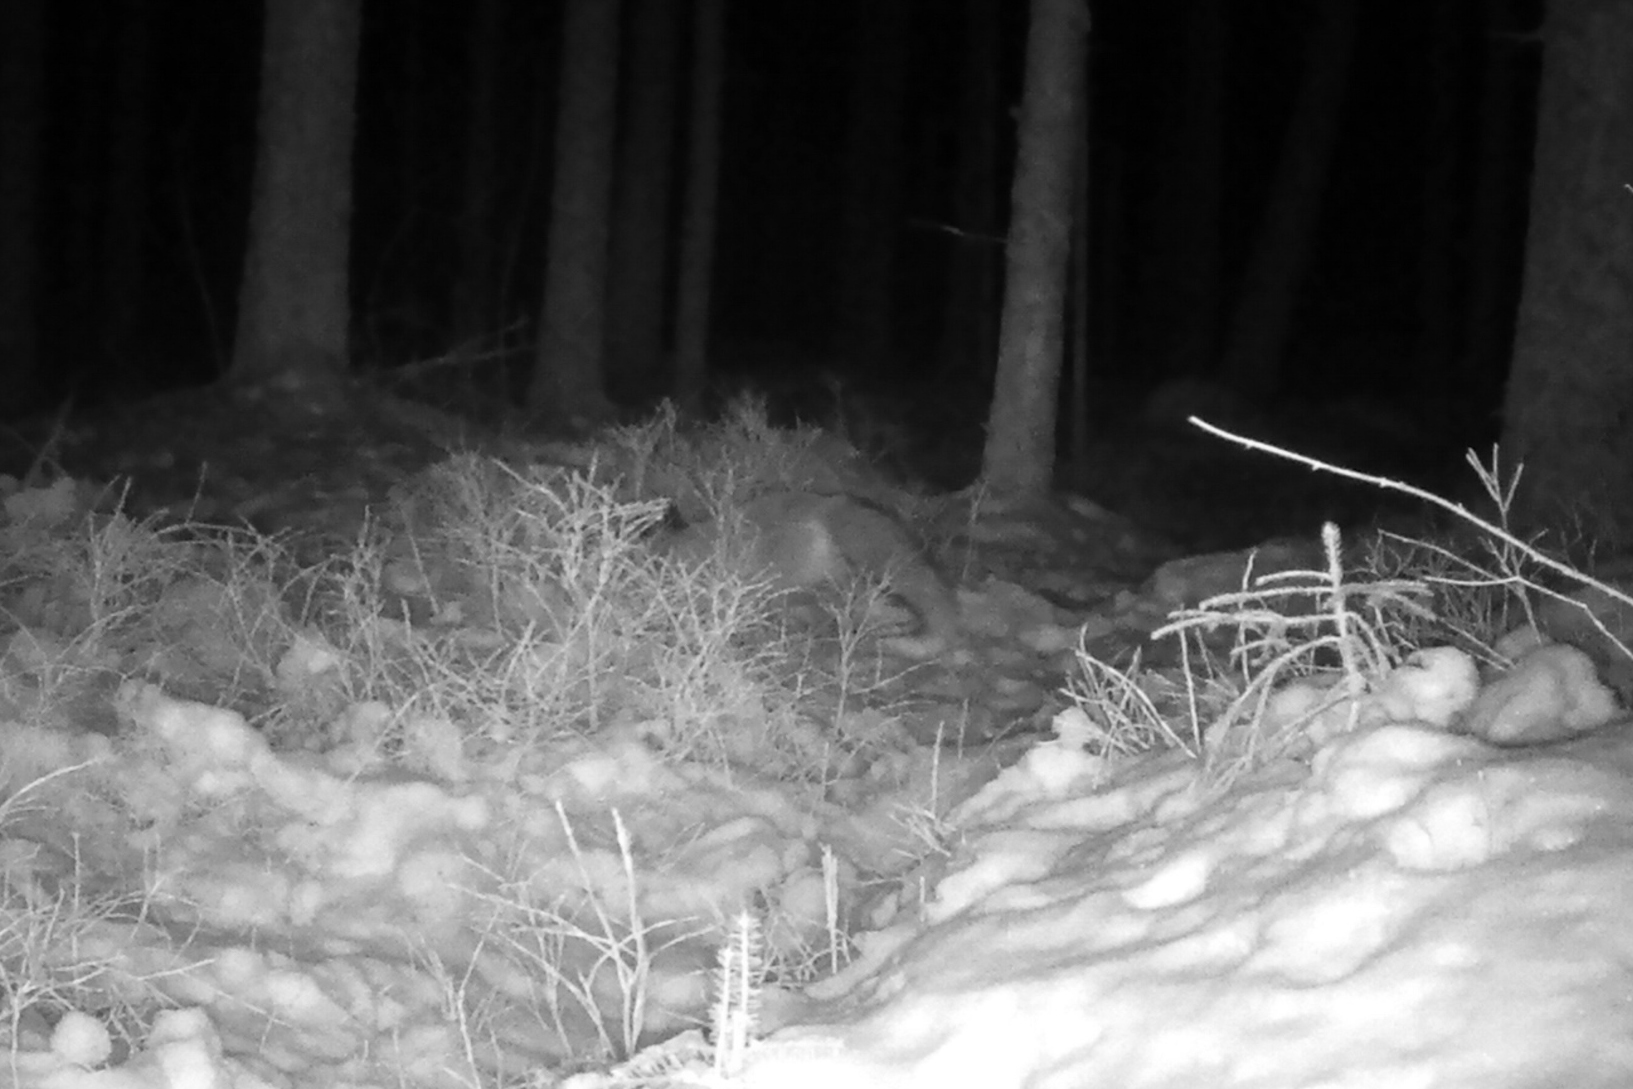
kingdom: Animalia
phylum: Chordata
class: Mammalia
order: Carnivora
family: Canidae
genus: Vulpes
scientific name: Vulpes vulpes
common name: Red fox
